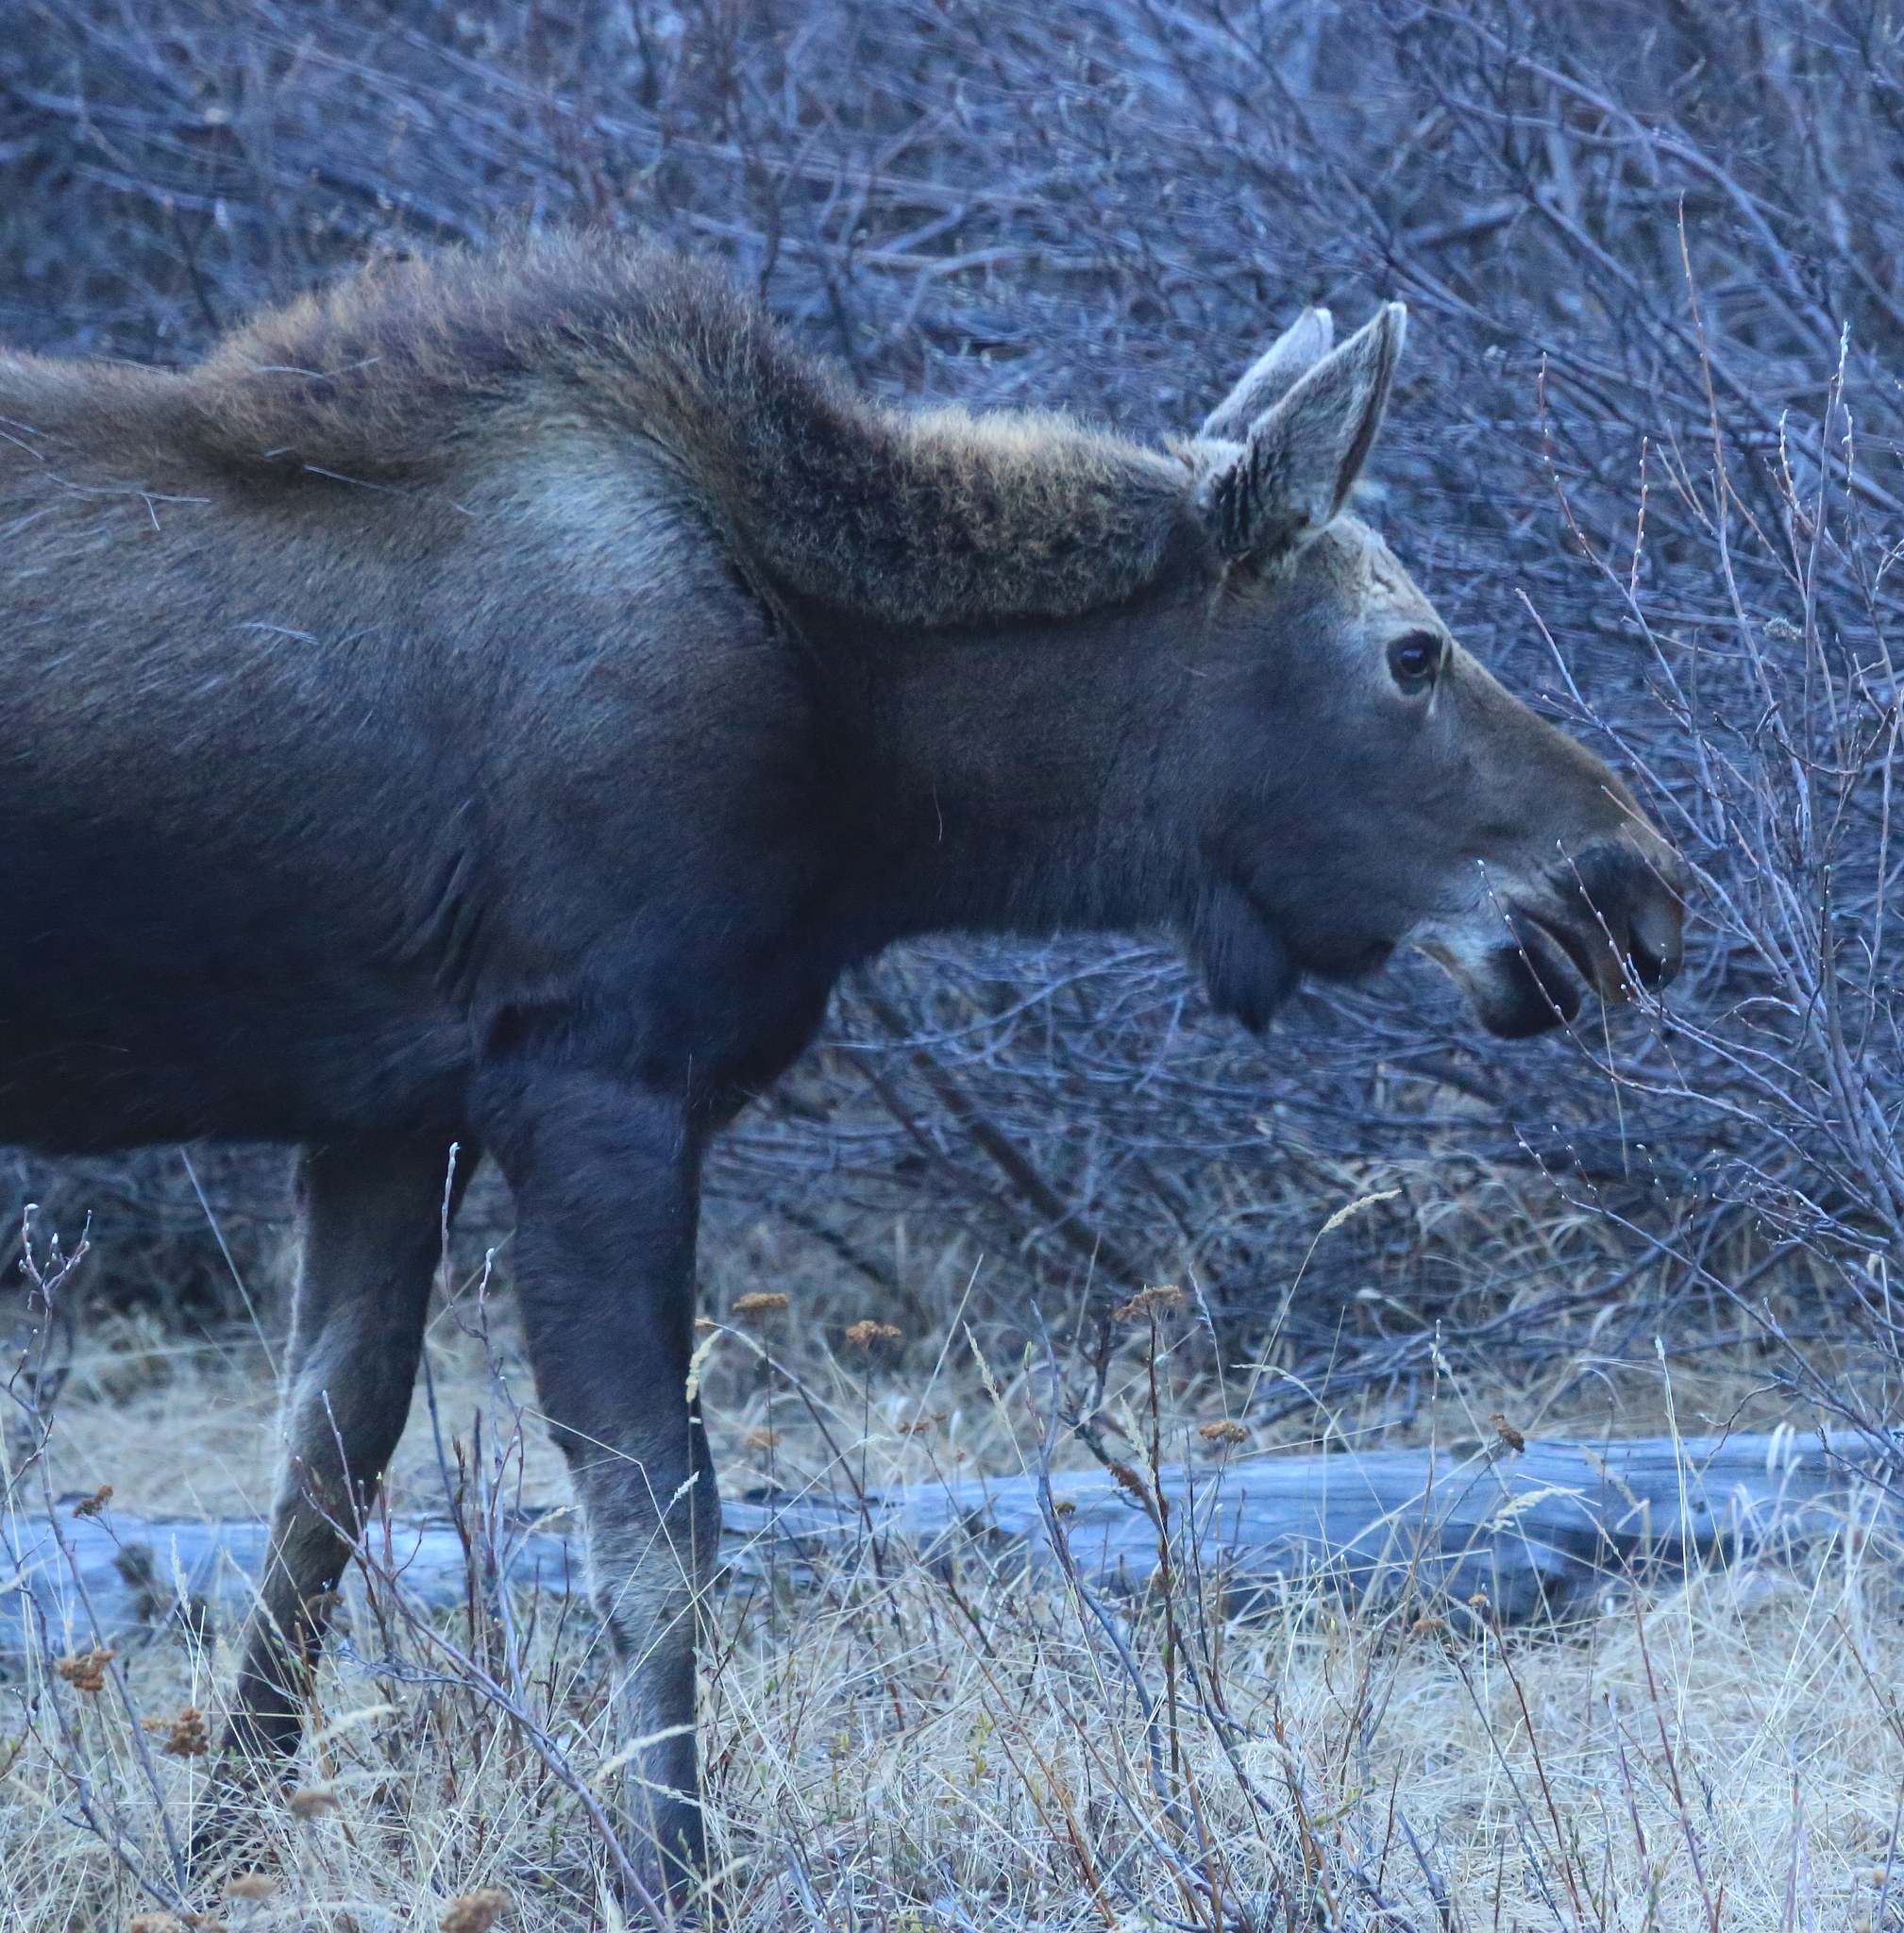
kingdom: Animalia
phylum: Chordata
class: Mammalia
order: Artiodactyla
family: Cervidae
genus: Alces
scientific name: Alces alces
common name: Moose
